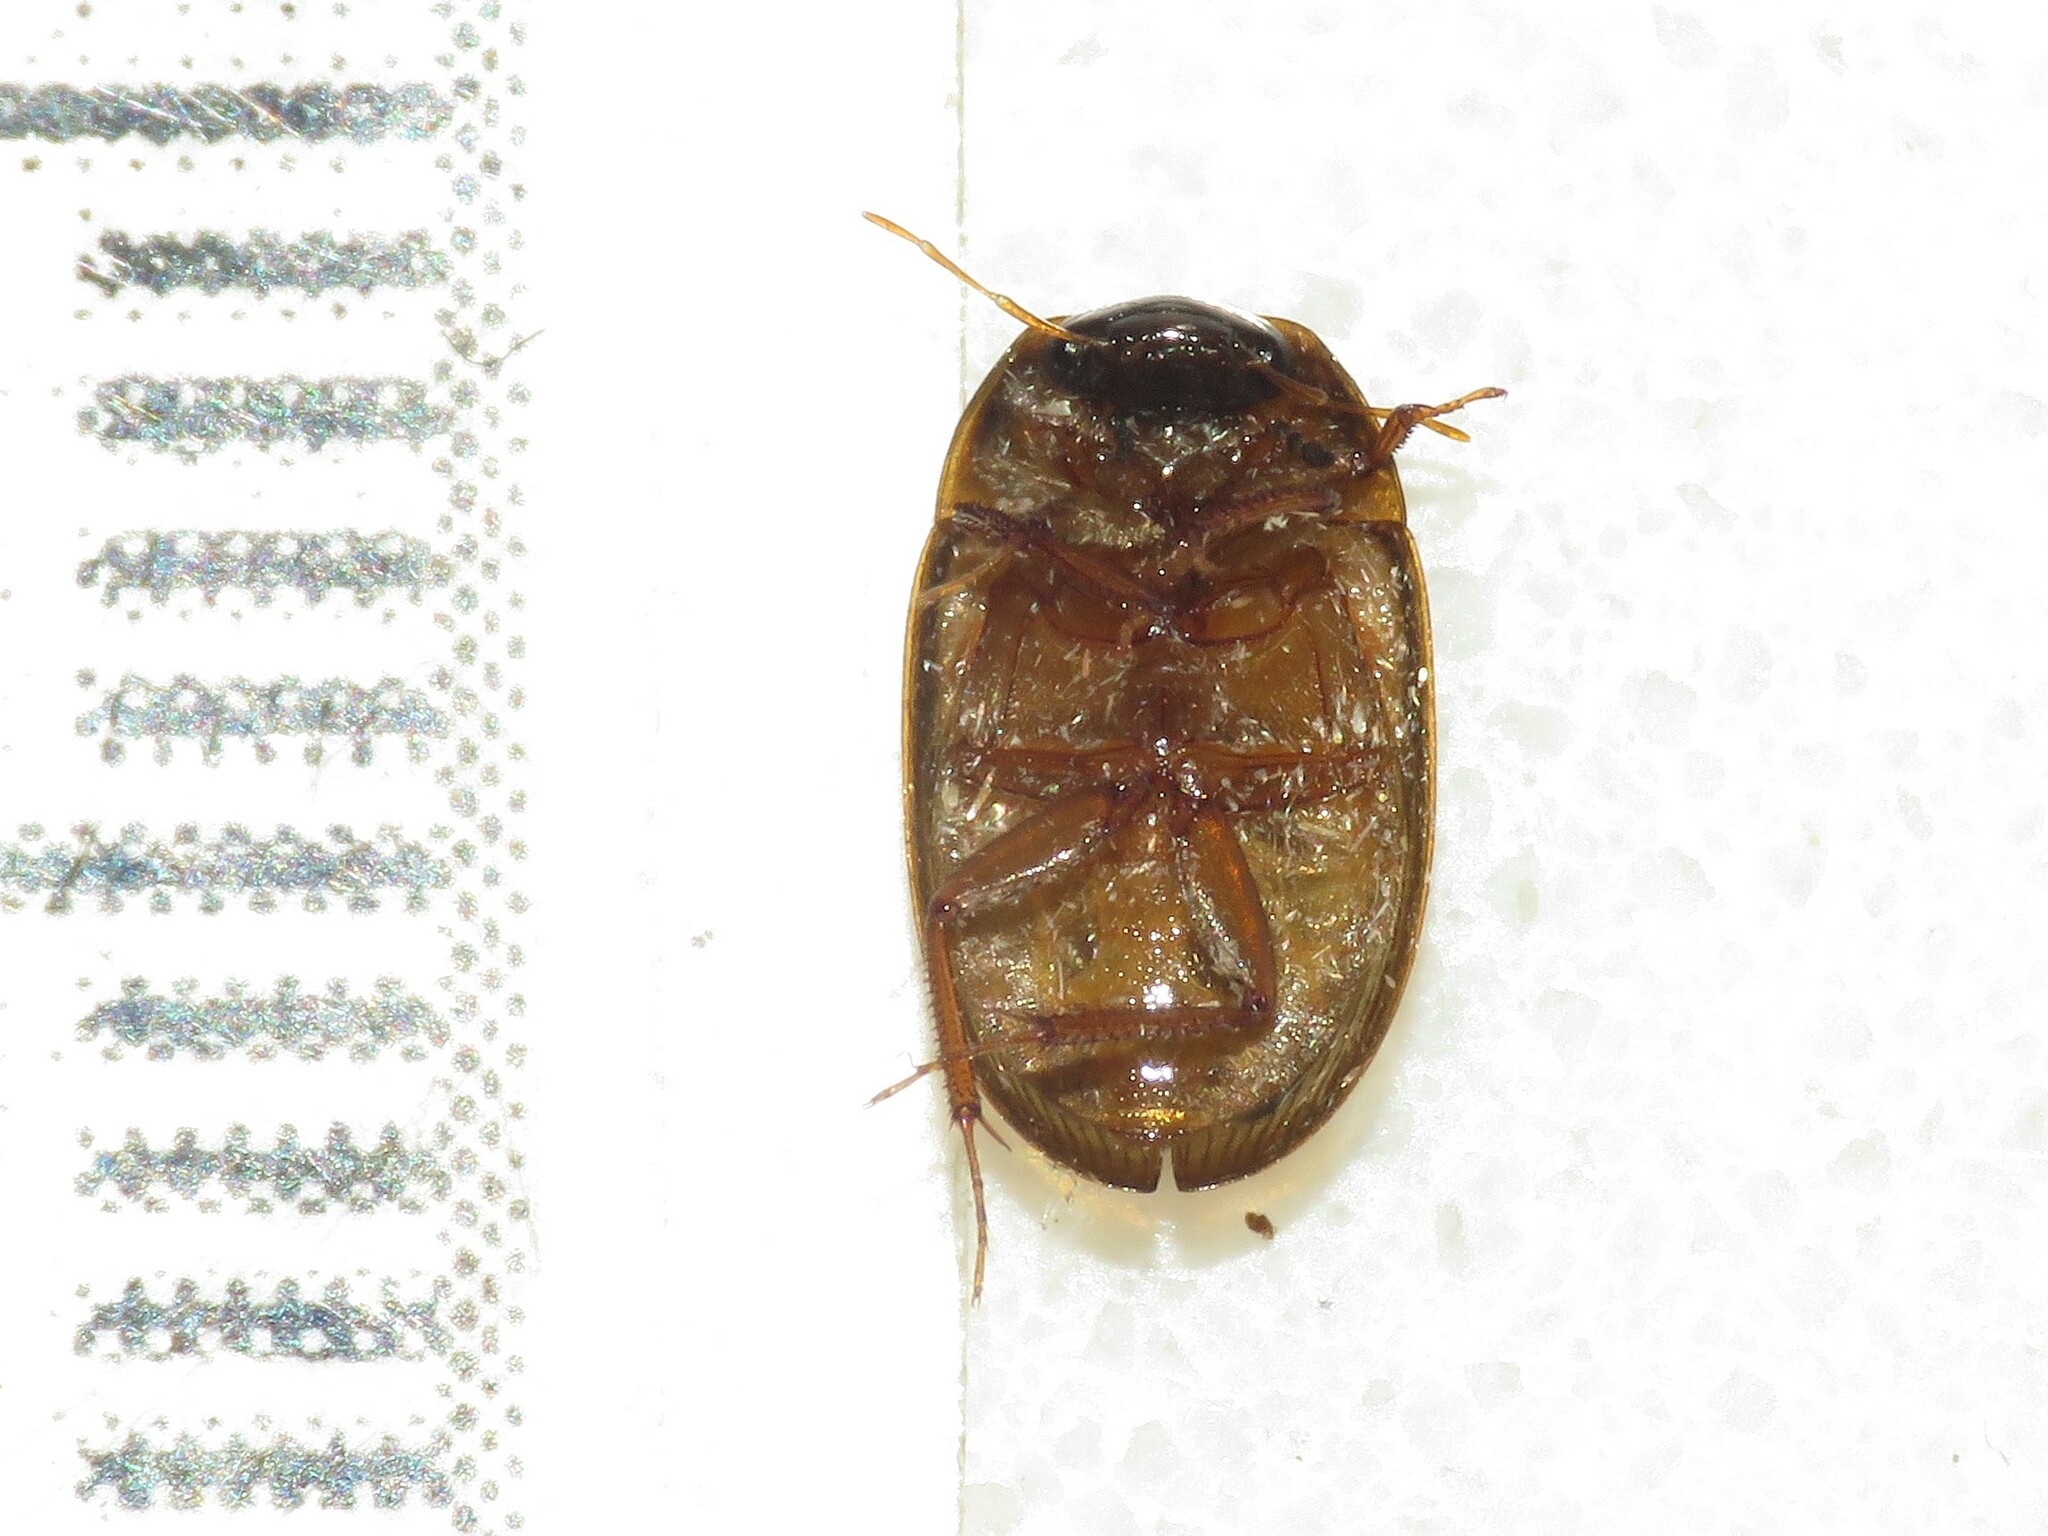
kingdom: Animalia
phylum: Arthropoda
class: Insecta
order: Coleoptera
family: Scirtidae
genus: Contacyphon
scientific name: Contacyphon
